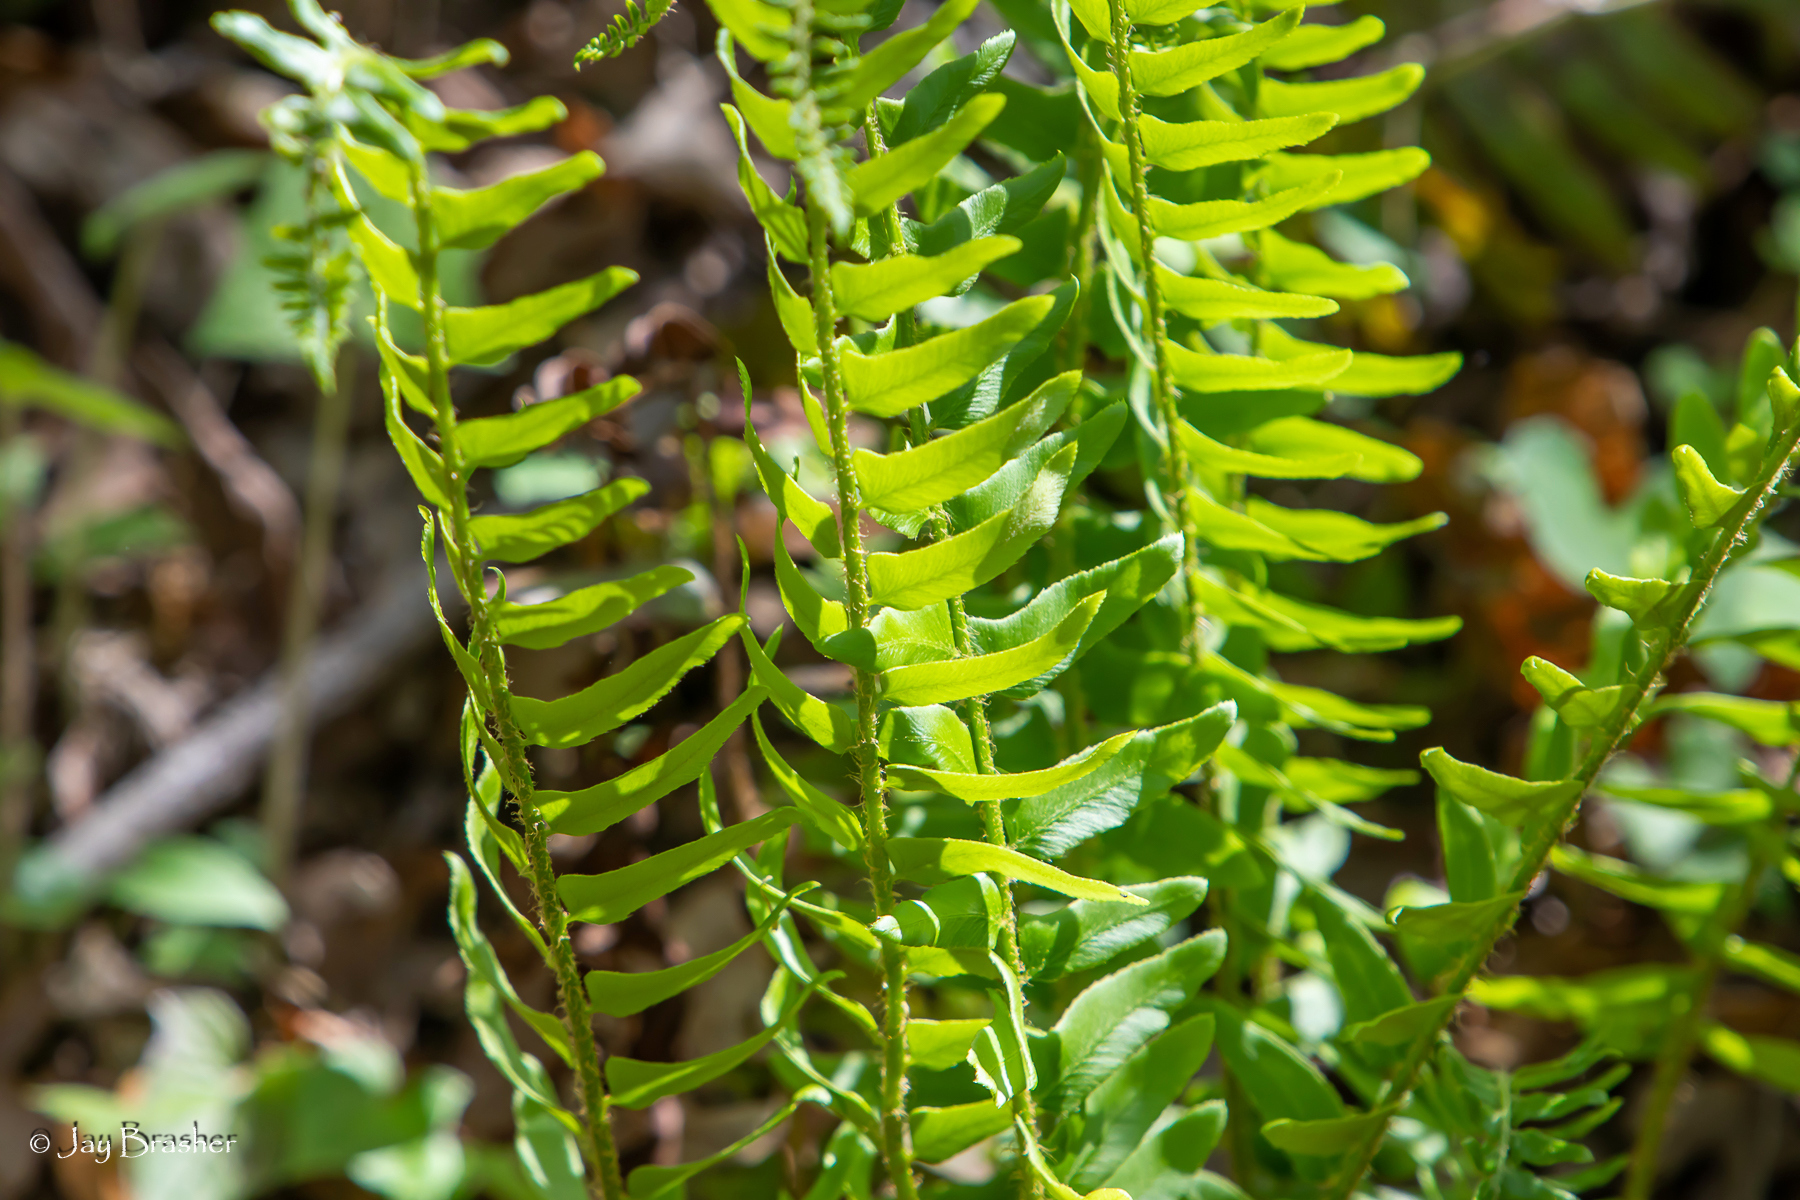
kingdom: Plantae
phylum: Tracheophyta
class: Polypodiopsida
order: Polypodiales
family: Dryopteridaceae
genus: Polystichum
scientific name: Polystichum acrostichoides
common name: Christmas fern
